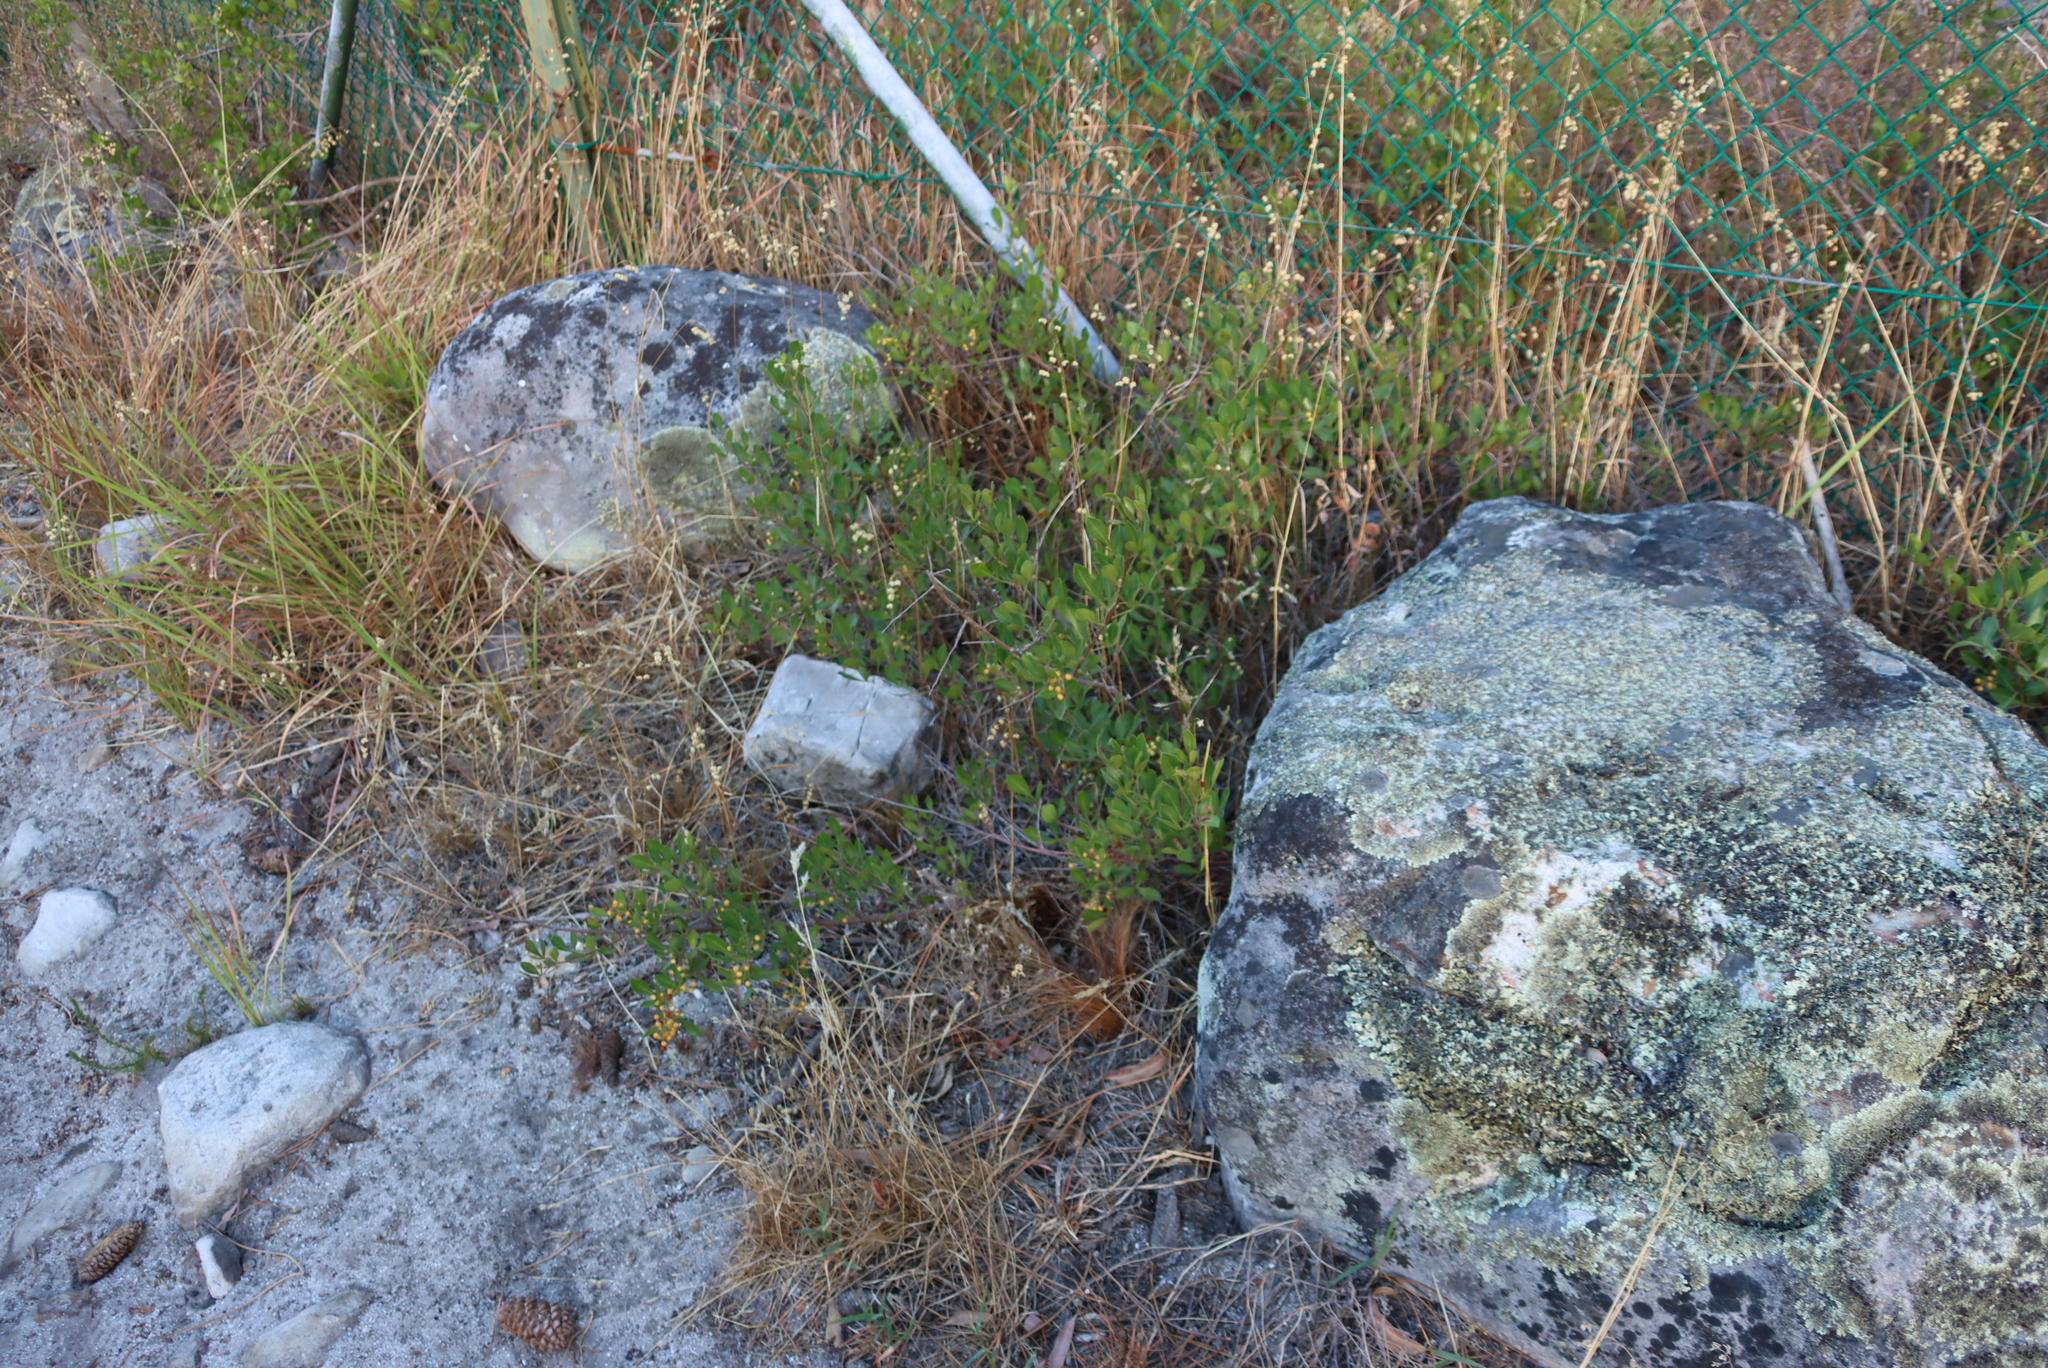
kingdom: Plantae
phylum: Tracheophyta
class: Magnoliopsida
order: Sapindales
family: Anacardiaceae
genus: Searsia
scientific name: Searsia laevigata
